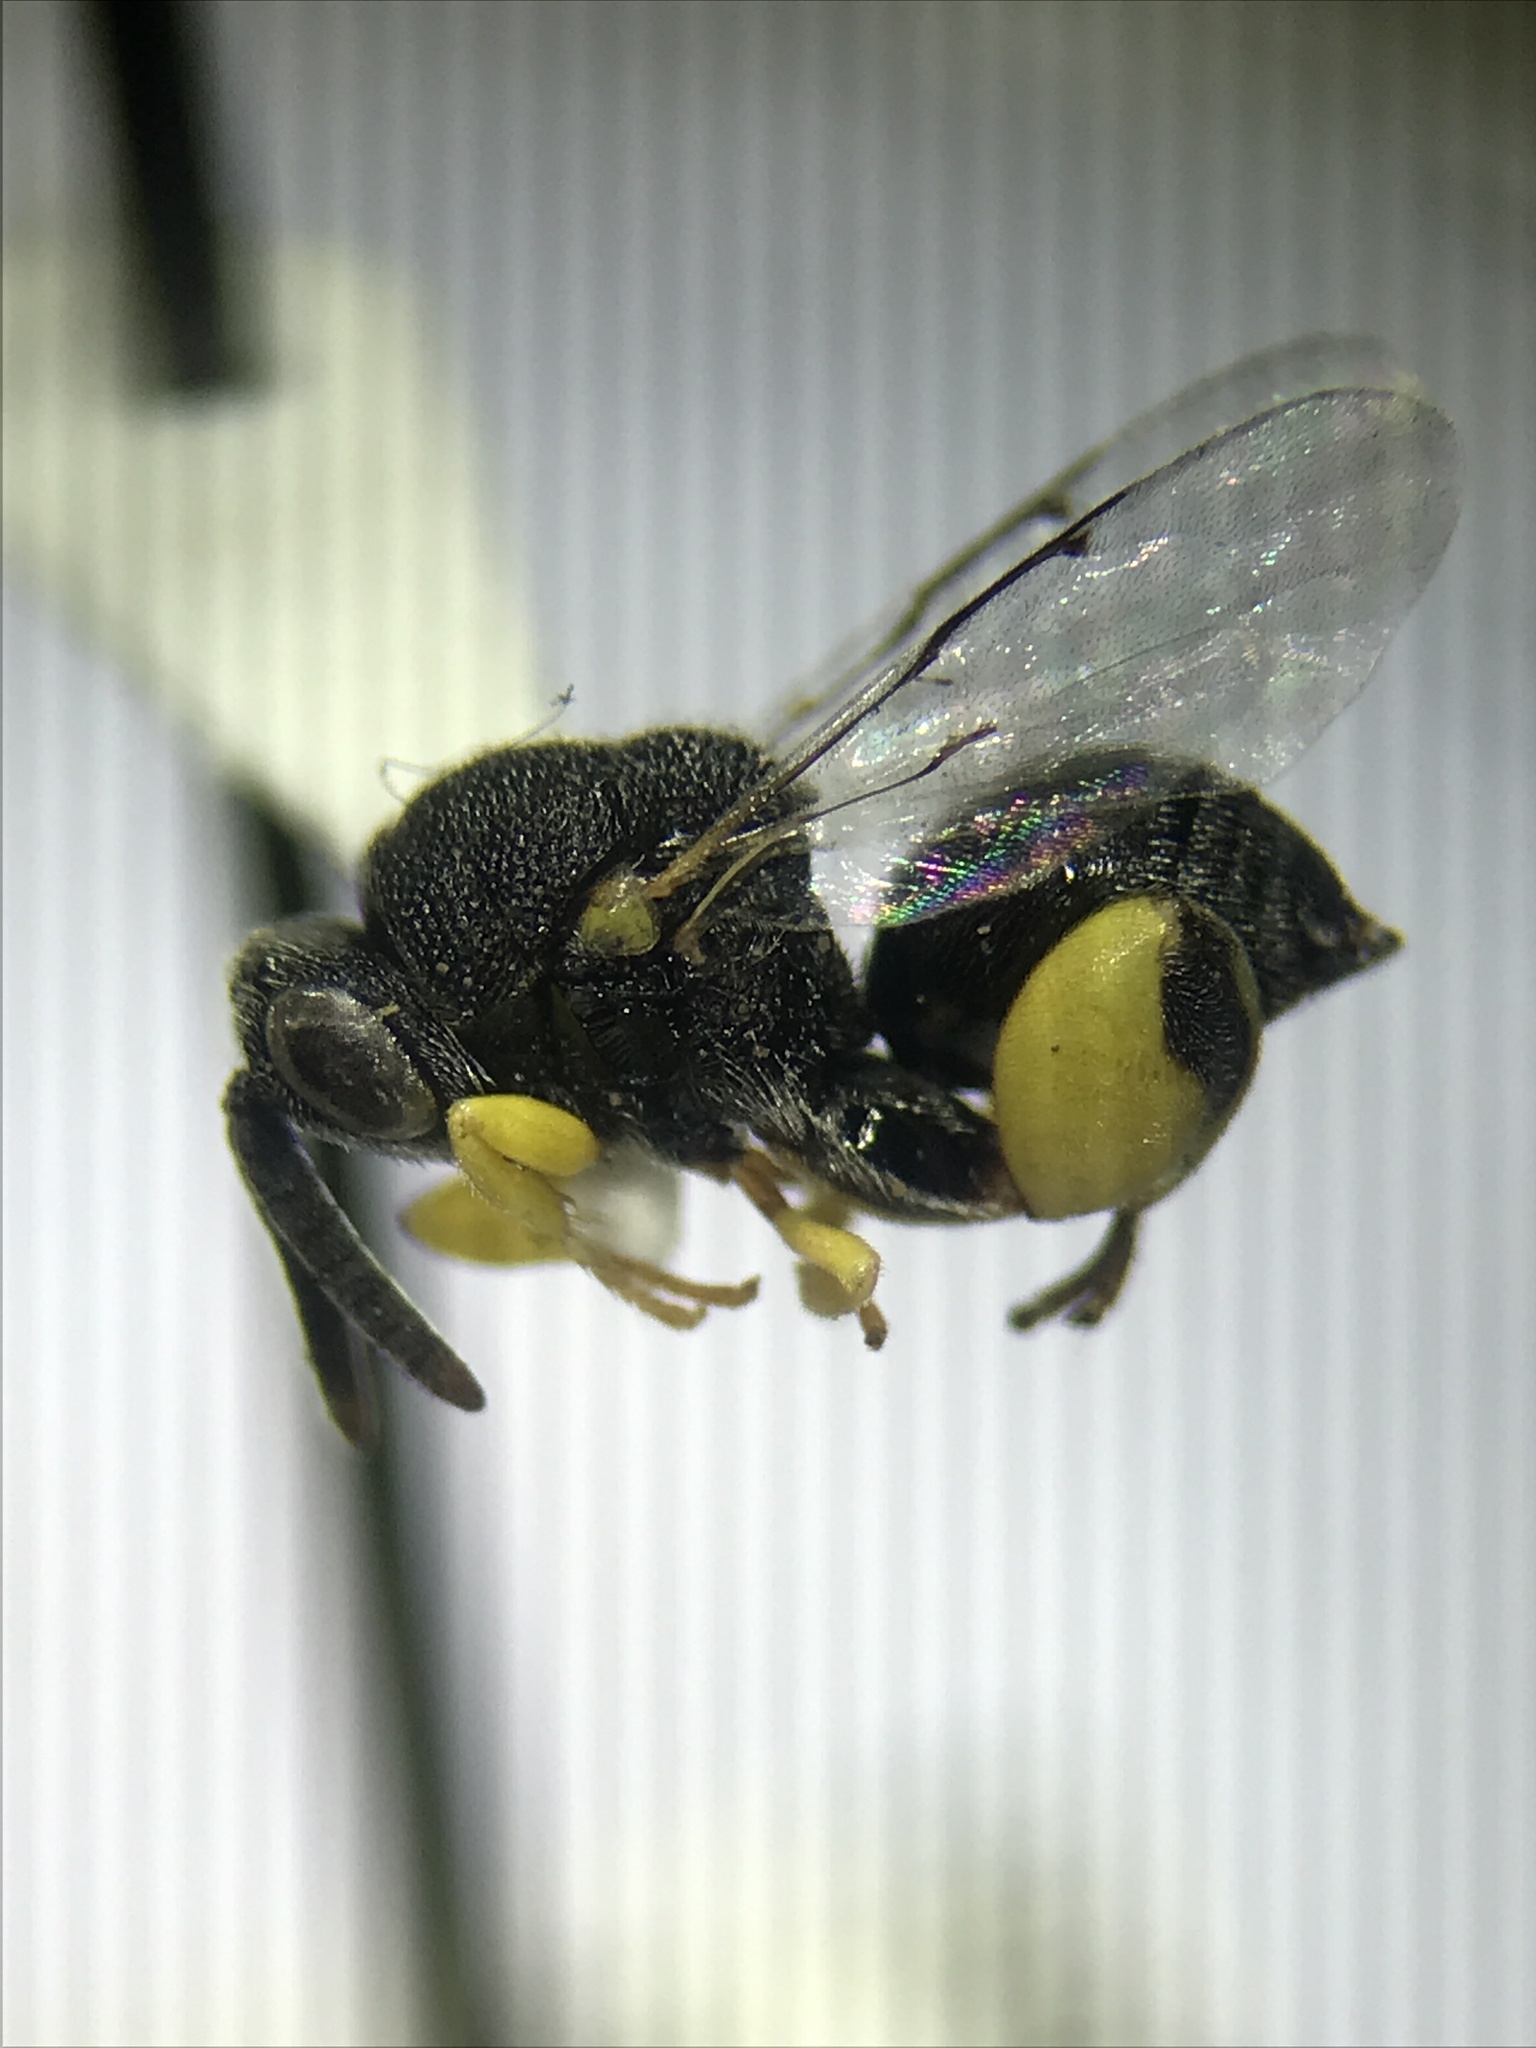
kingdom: Animalia
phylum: Arthropoda
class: Insecta
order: Hymenoptera
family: Chalcididae
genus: Brachymeria
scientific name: Brachymeria tegularis
